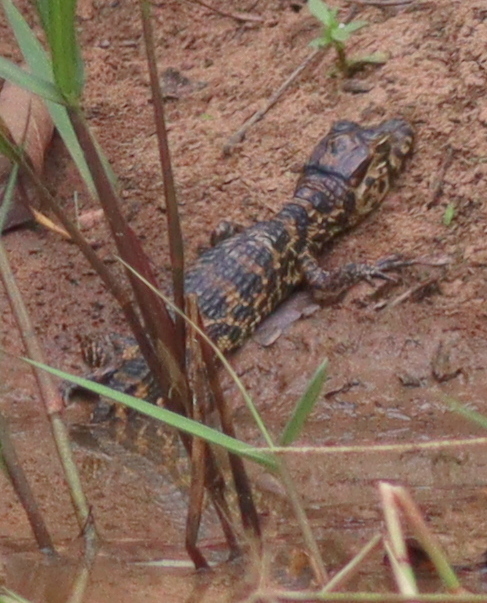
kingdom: Animalia
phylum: Chordata
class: Crocodylia
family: Alligatoridae
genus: Caiman
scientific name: Caiman yacare
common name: Yacare caiman
